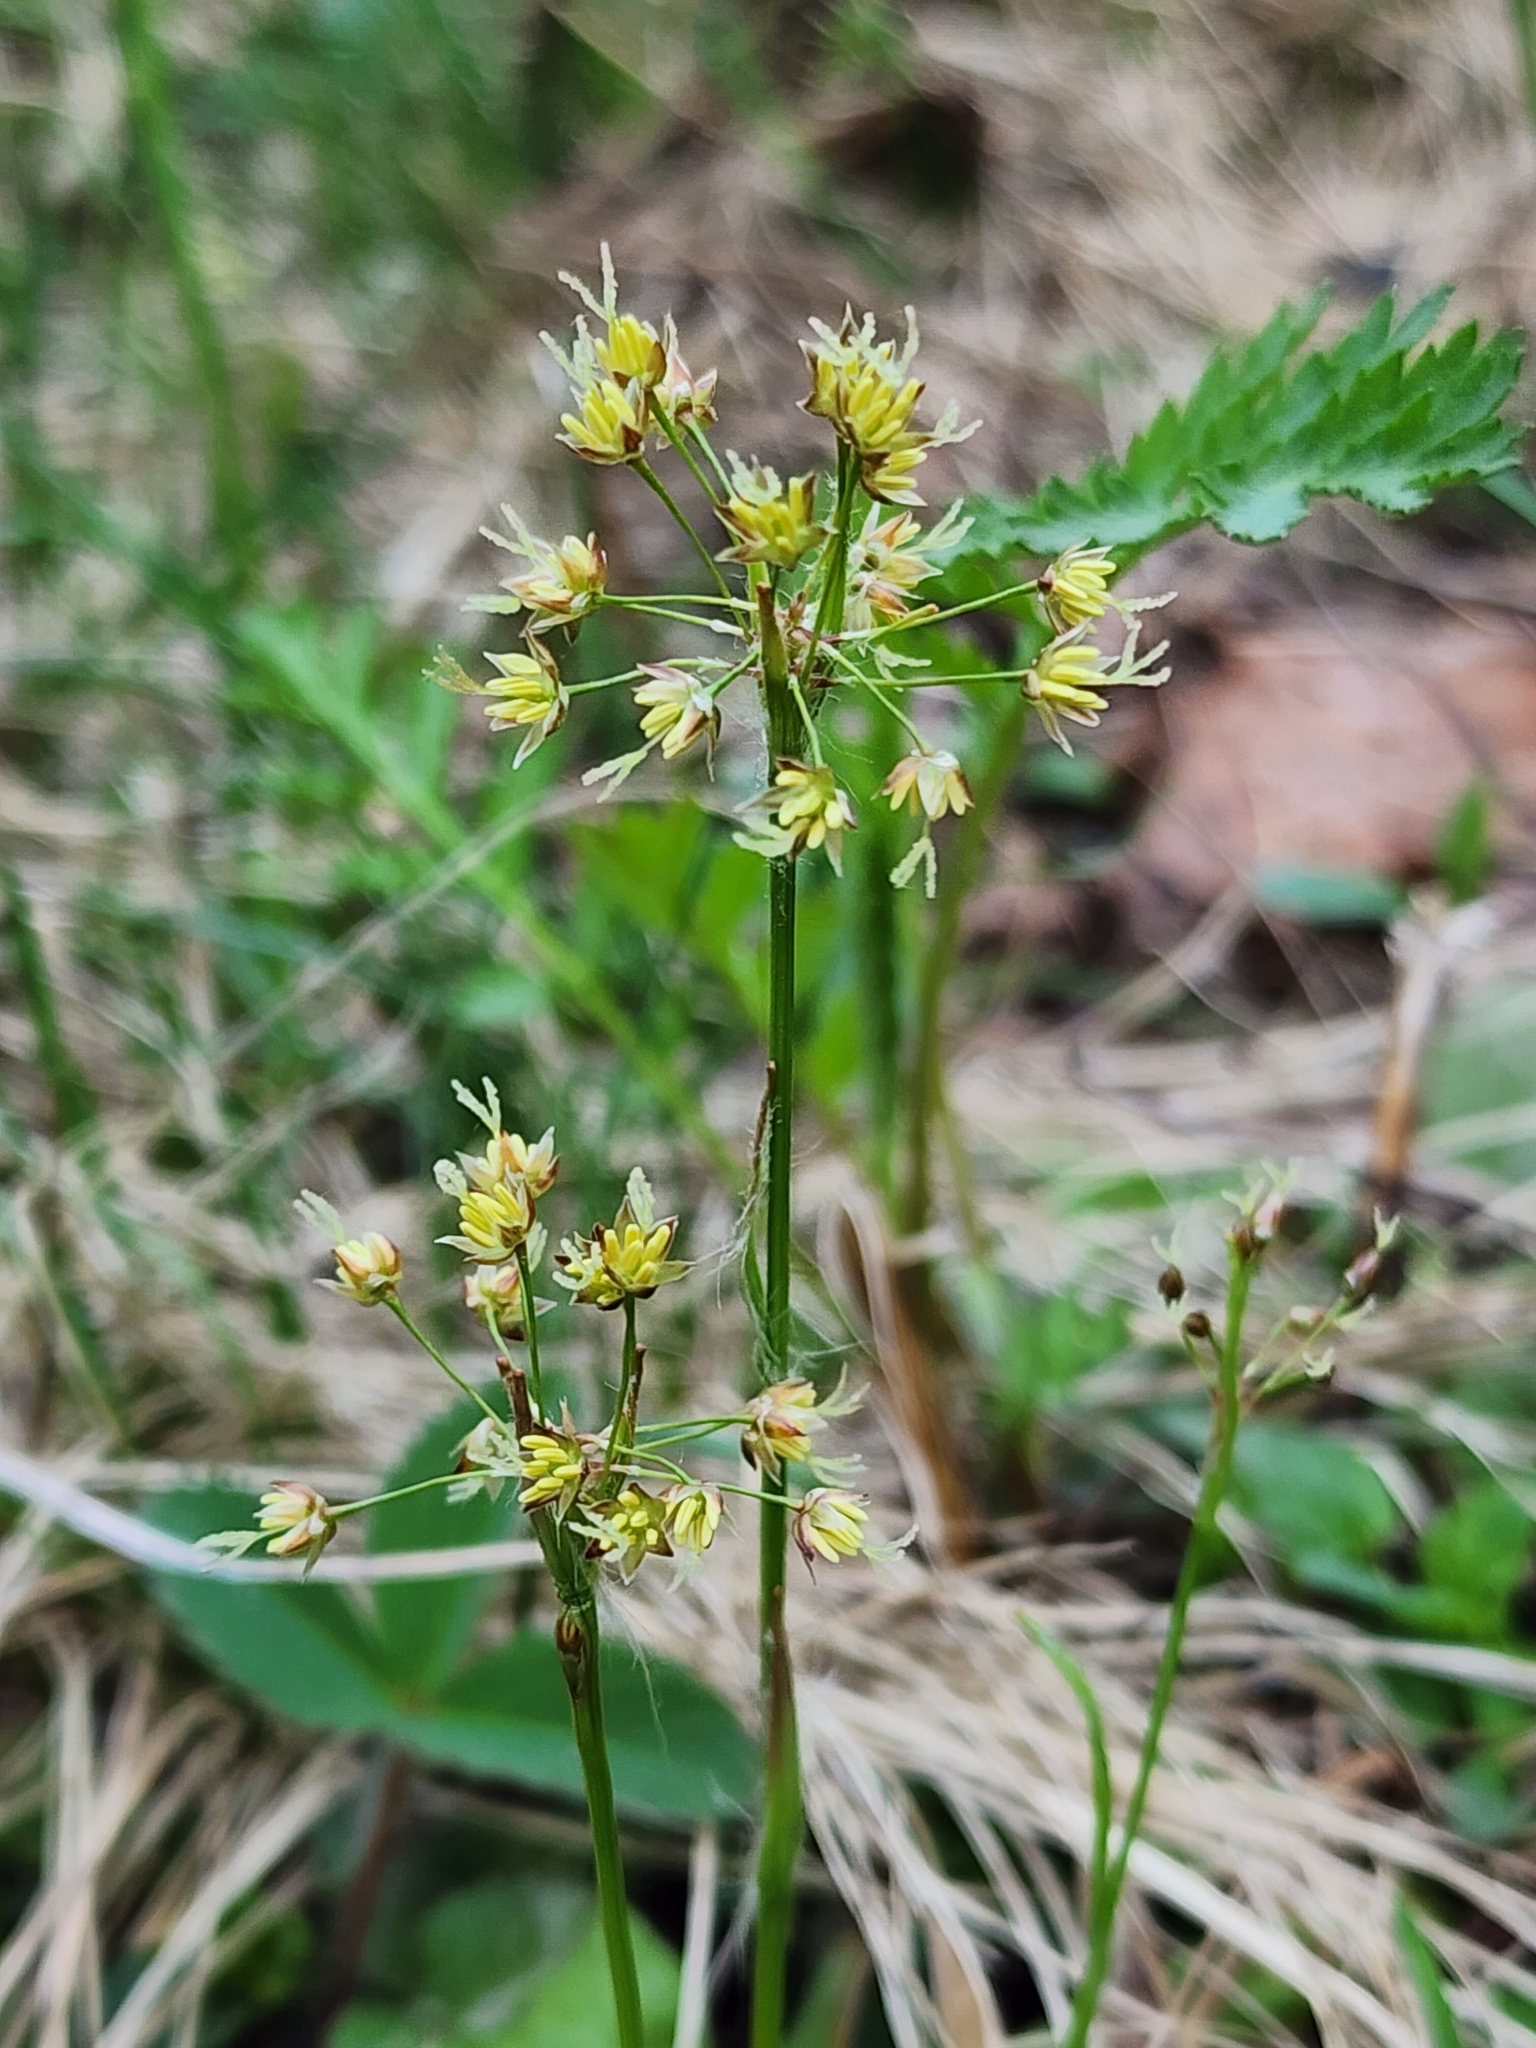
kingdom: Plantae
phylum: Tracheophyta
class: Liliopsida
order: Poales
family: Juncaceae
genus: Luzula
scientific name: Luzula acuminata
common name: Hairy woodrush
